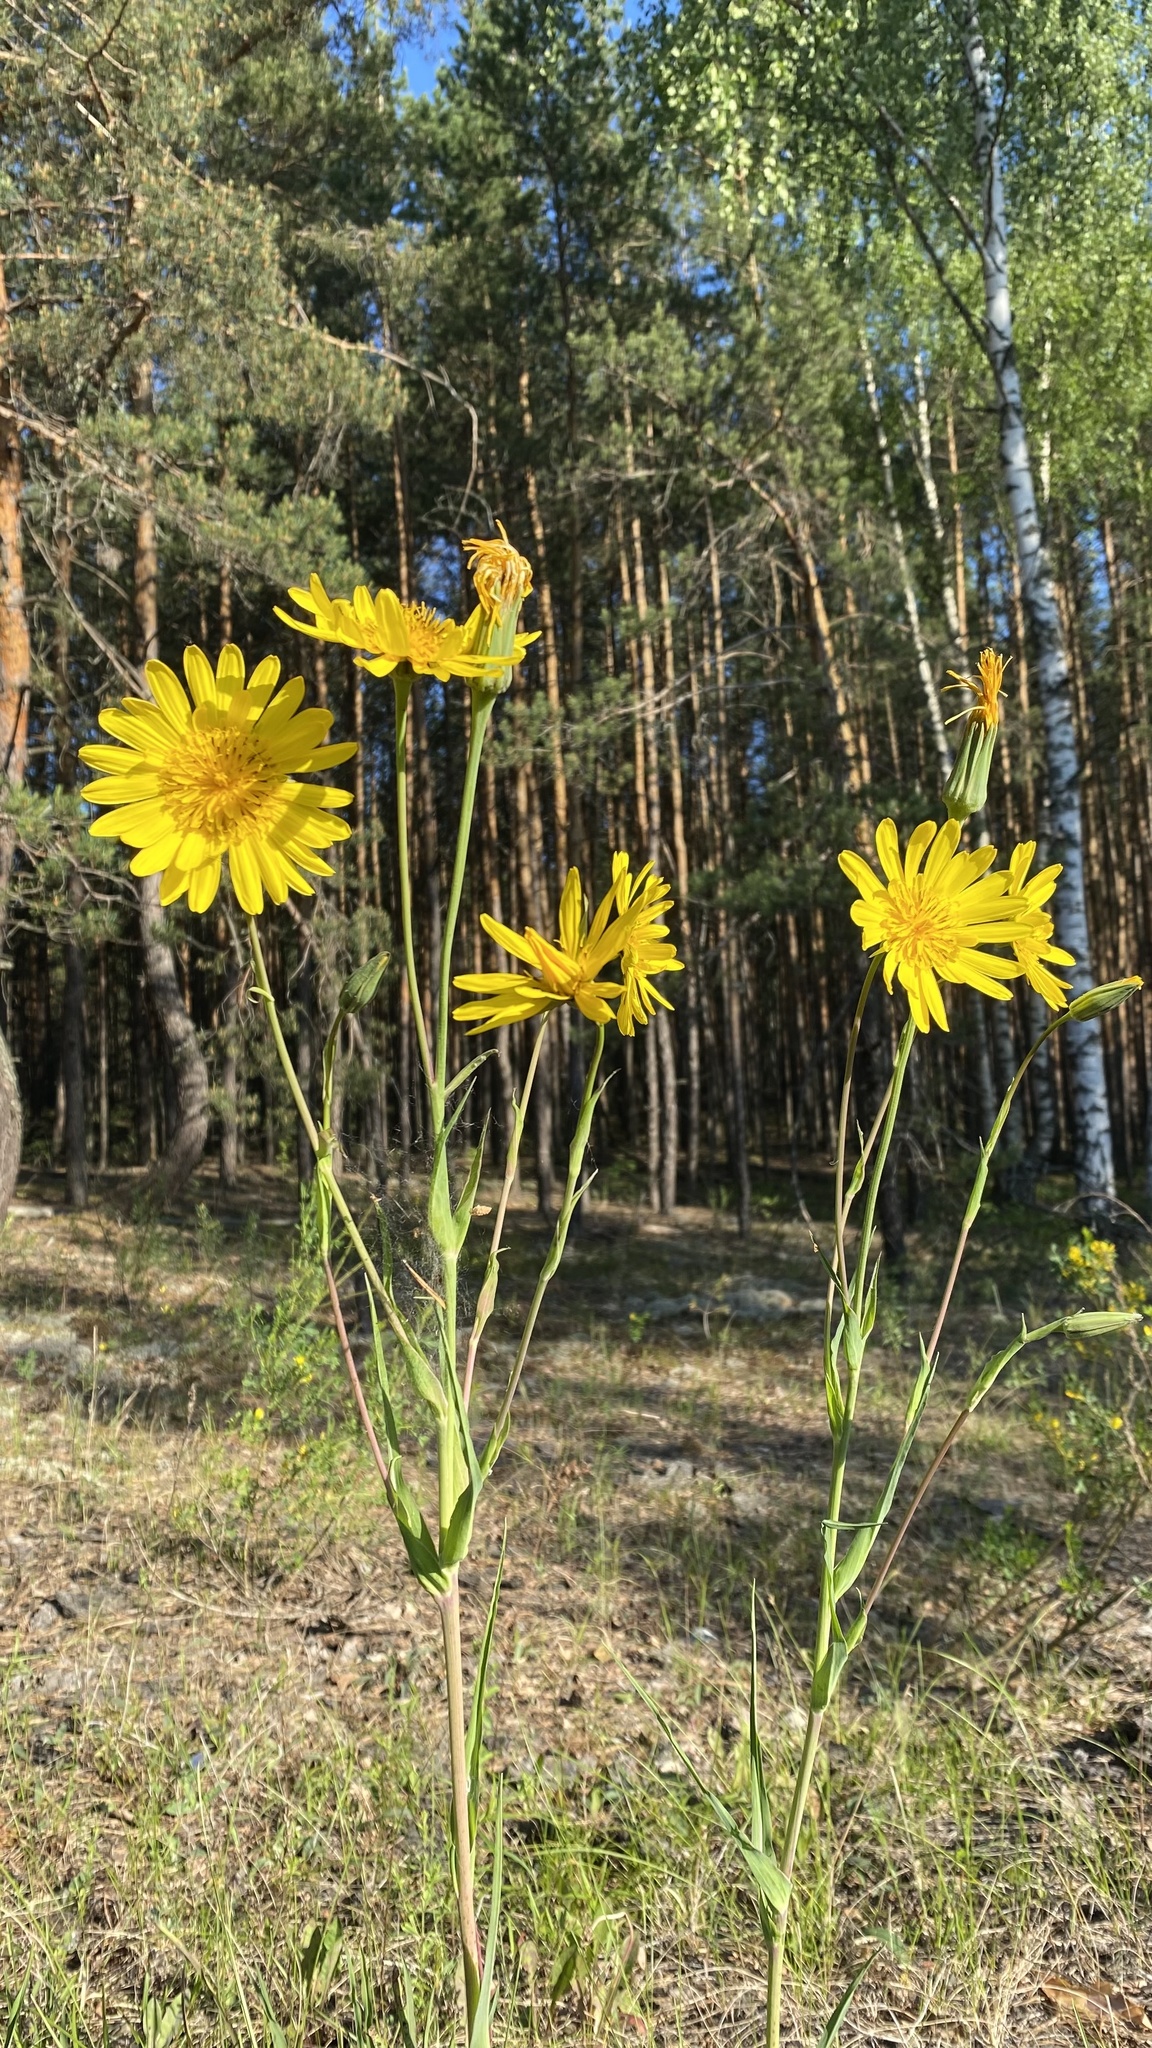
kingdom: Plantae
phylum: Tracheophyta
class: Magnoliopsida
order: Asterales
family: Asteraceae
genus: Tragopogon
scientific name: Tragopogon orientalis
